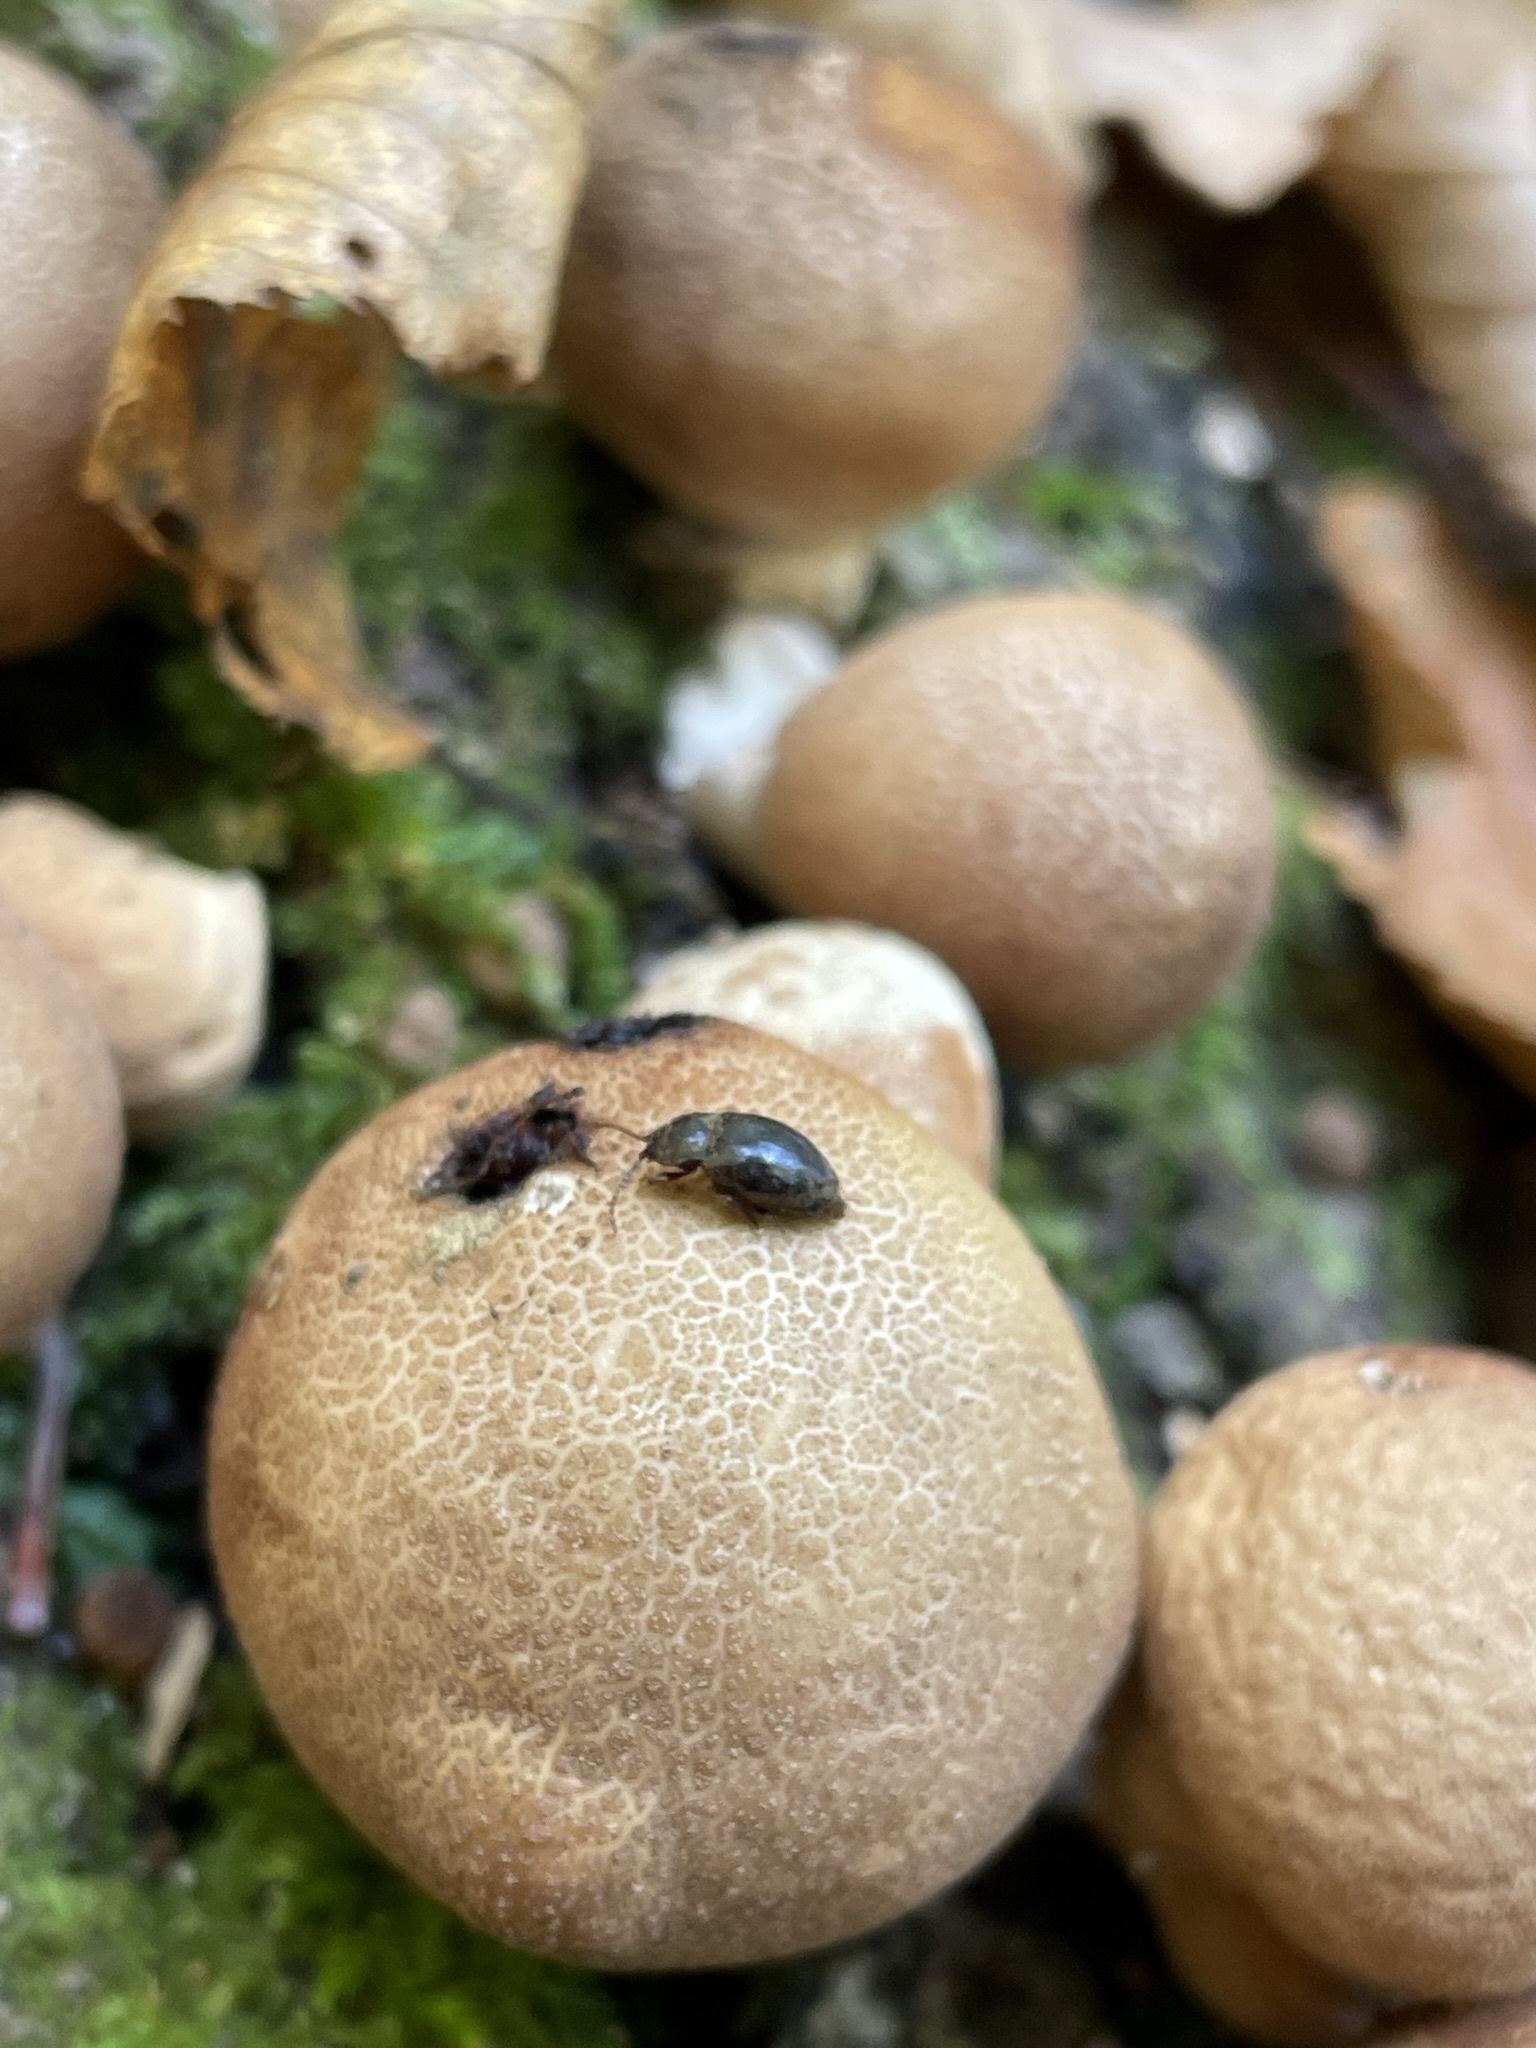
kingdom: Animalia
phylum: Arthropoda
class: Insecta
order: Coleoptera
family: Endomychidae
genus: Lycoperdina
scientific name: Lycoperdina ferruginea
